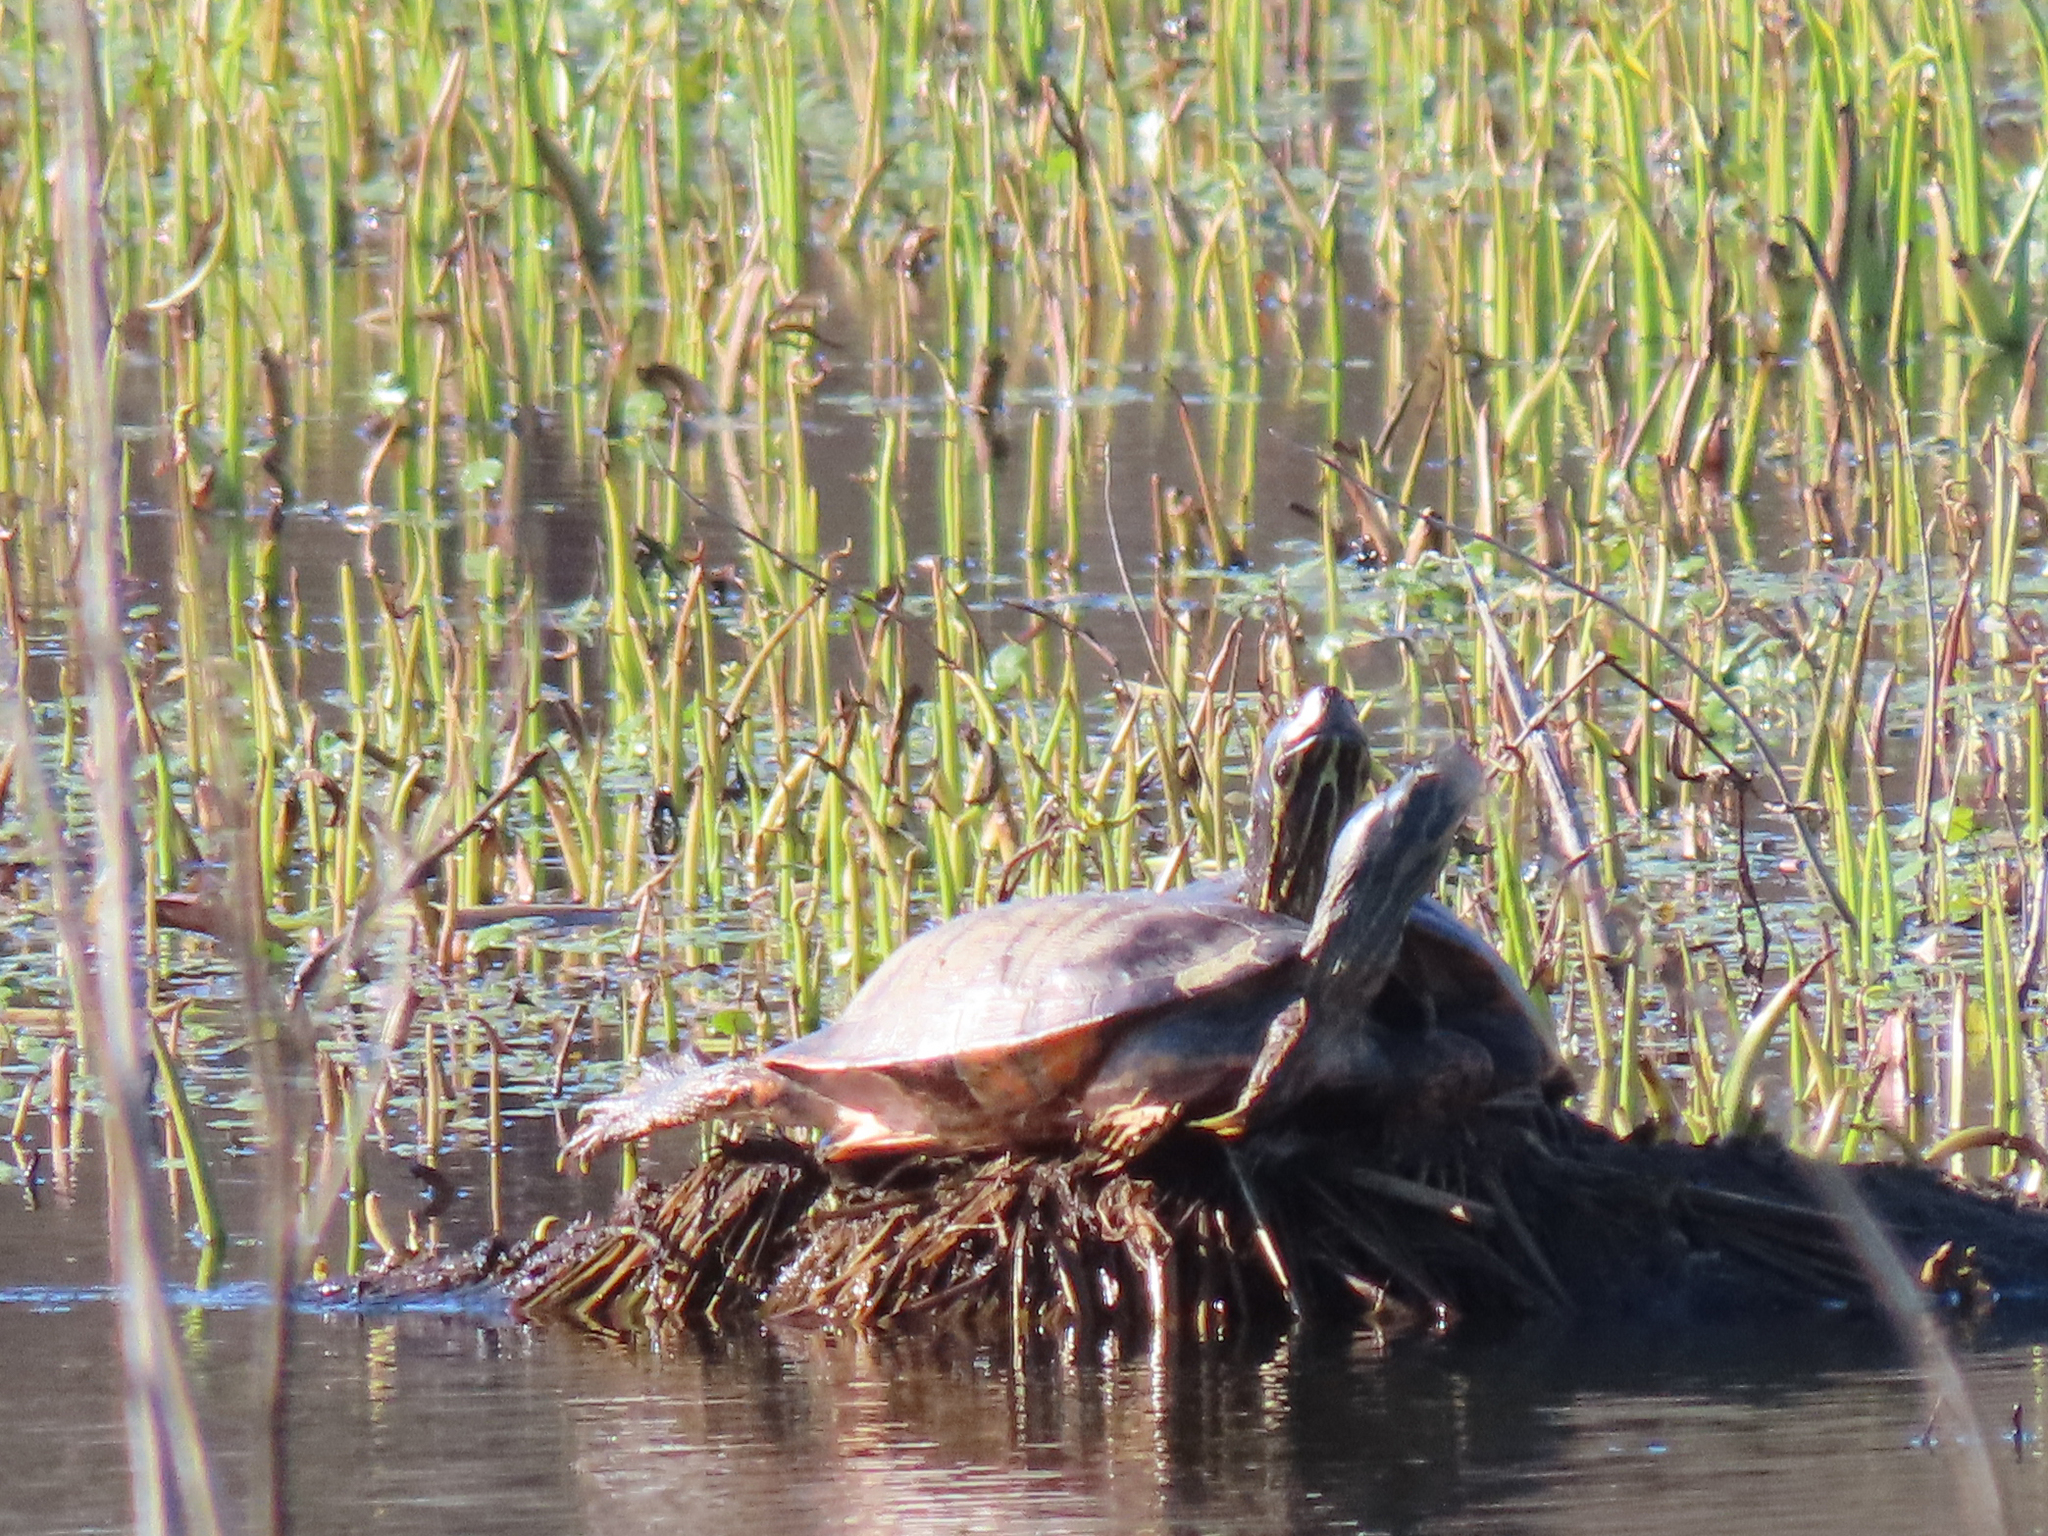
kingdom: Animalia
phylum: Chordata
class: Testudines
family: Emydidae
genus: Pseudemys
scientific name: Pseudemys rubriventris
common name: American red-bellied turtle
